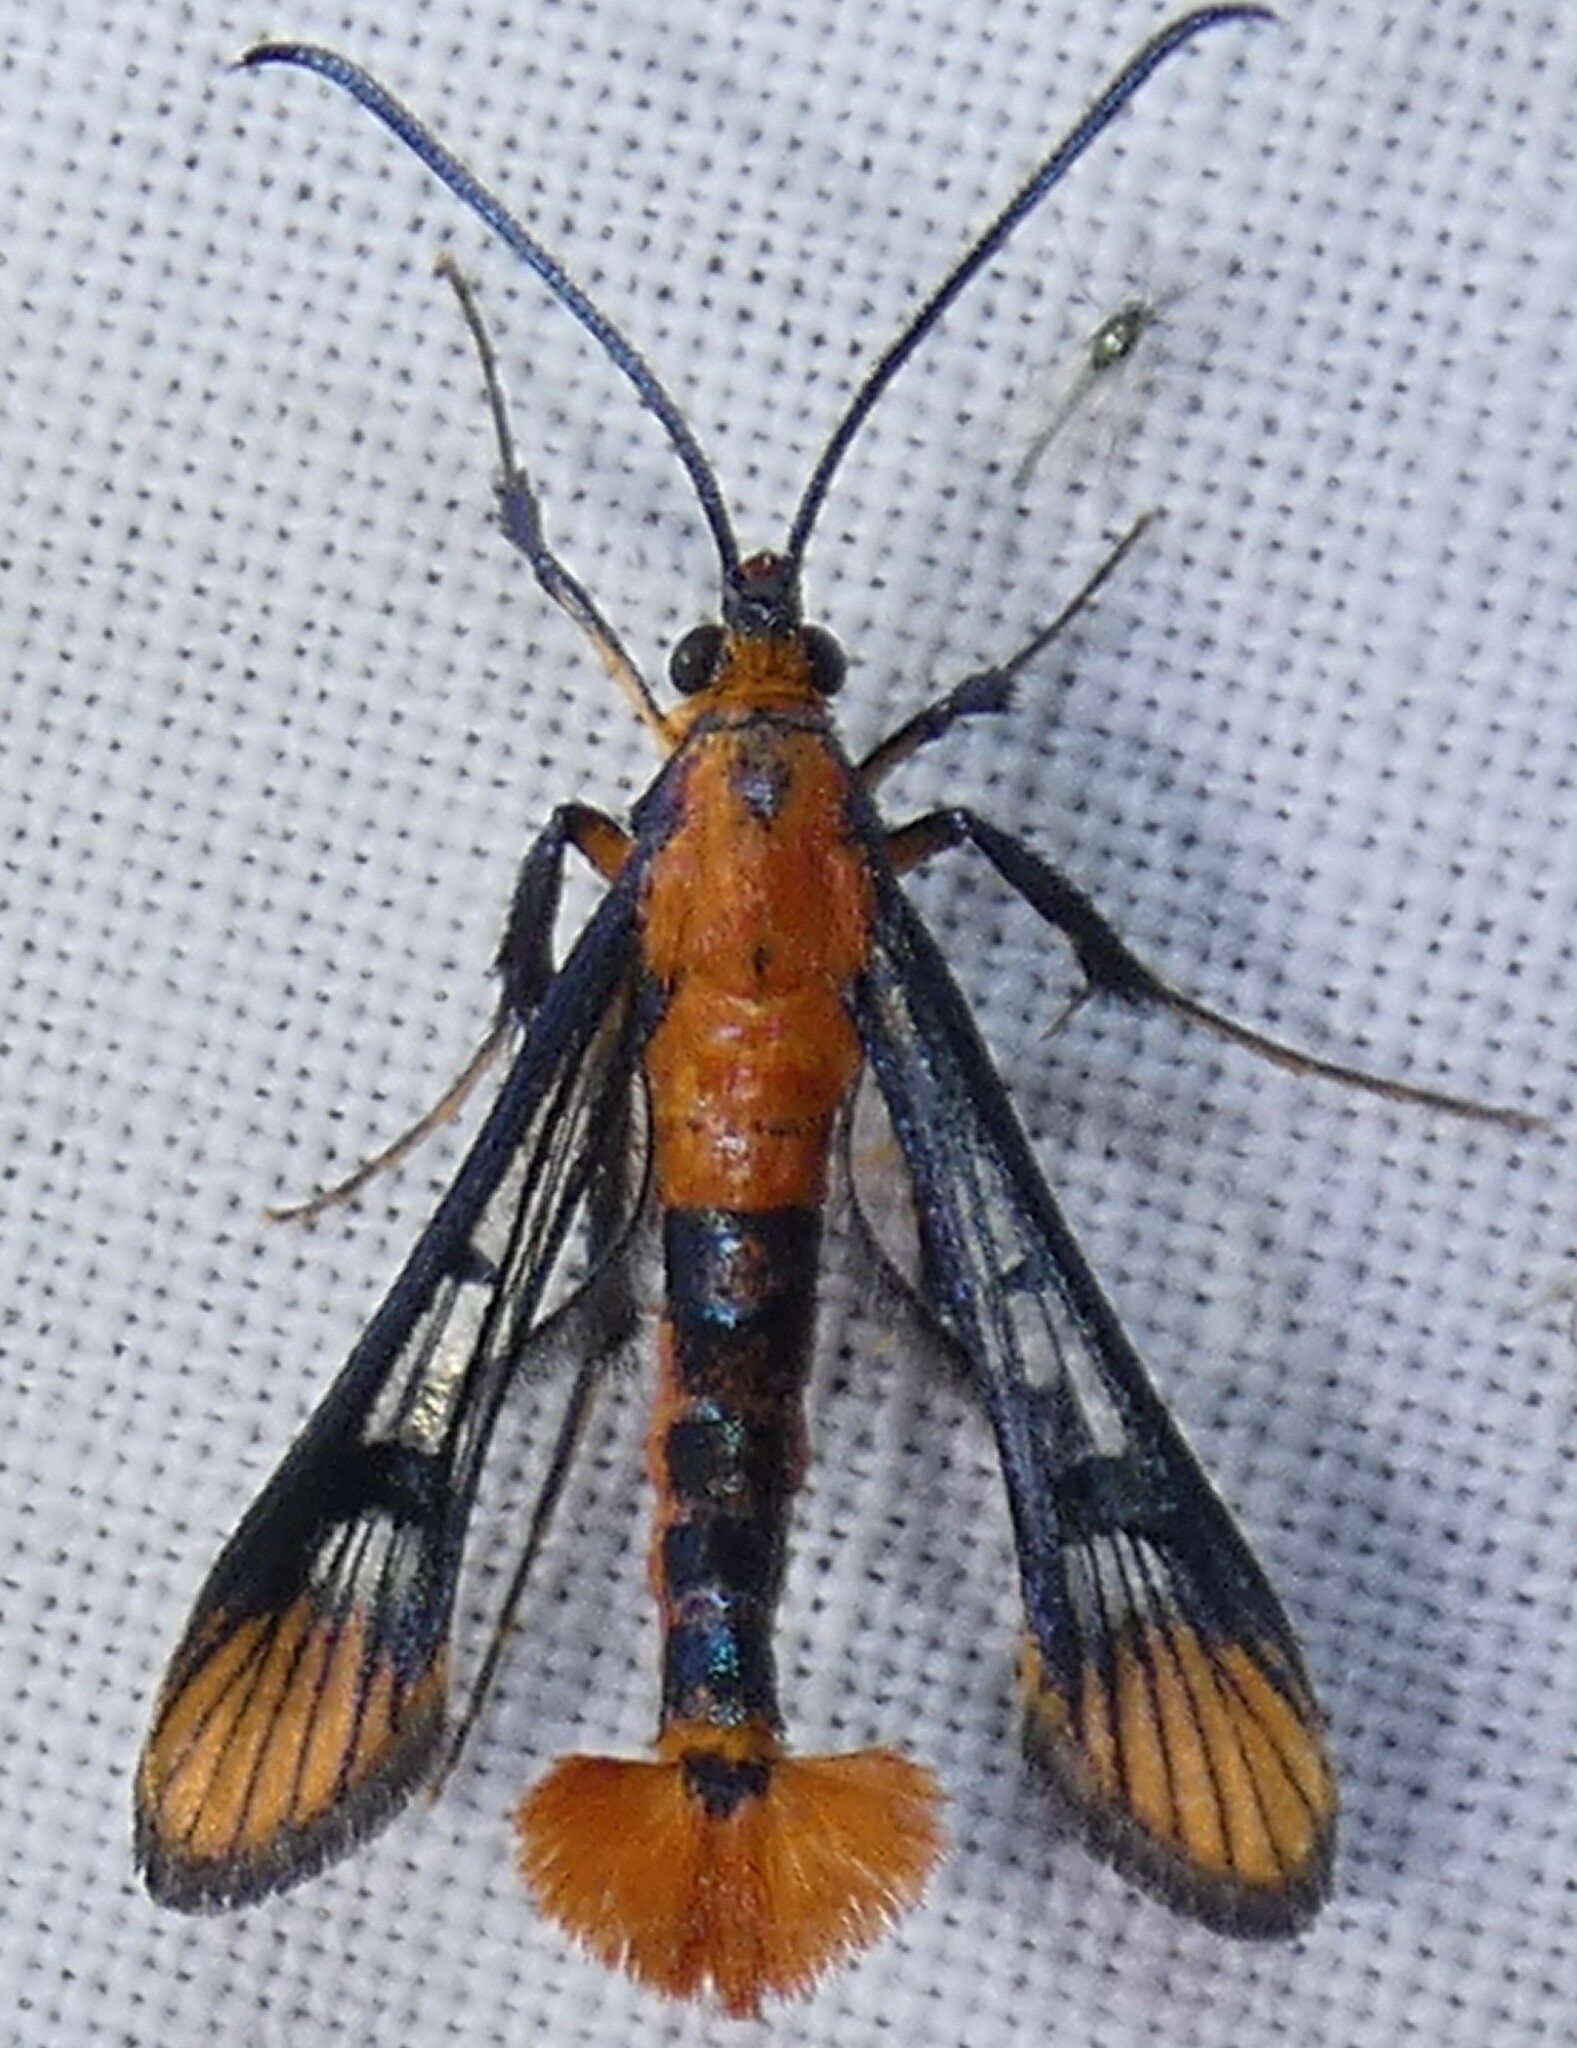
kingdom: Animalia
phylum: Arthropoda
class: Insecta
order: Lepidoptera
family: Sesiidae
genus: Synanthedon
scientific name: Synanthedon acerni
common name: Maple callus borer moth
